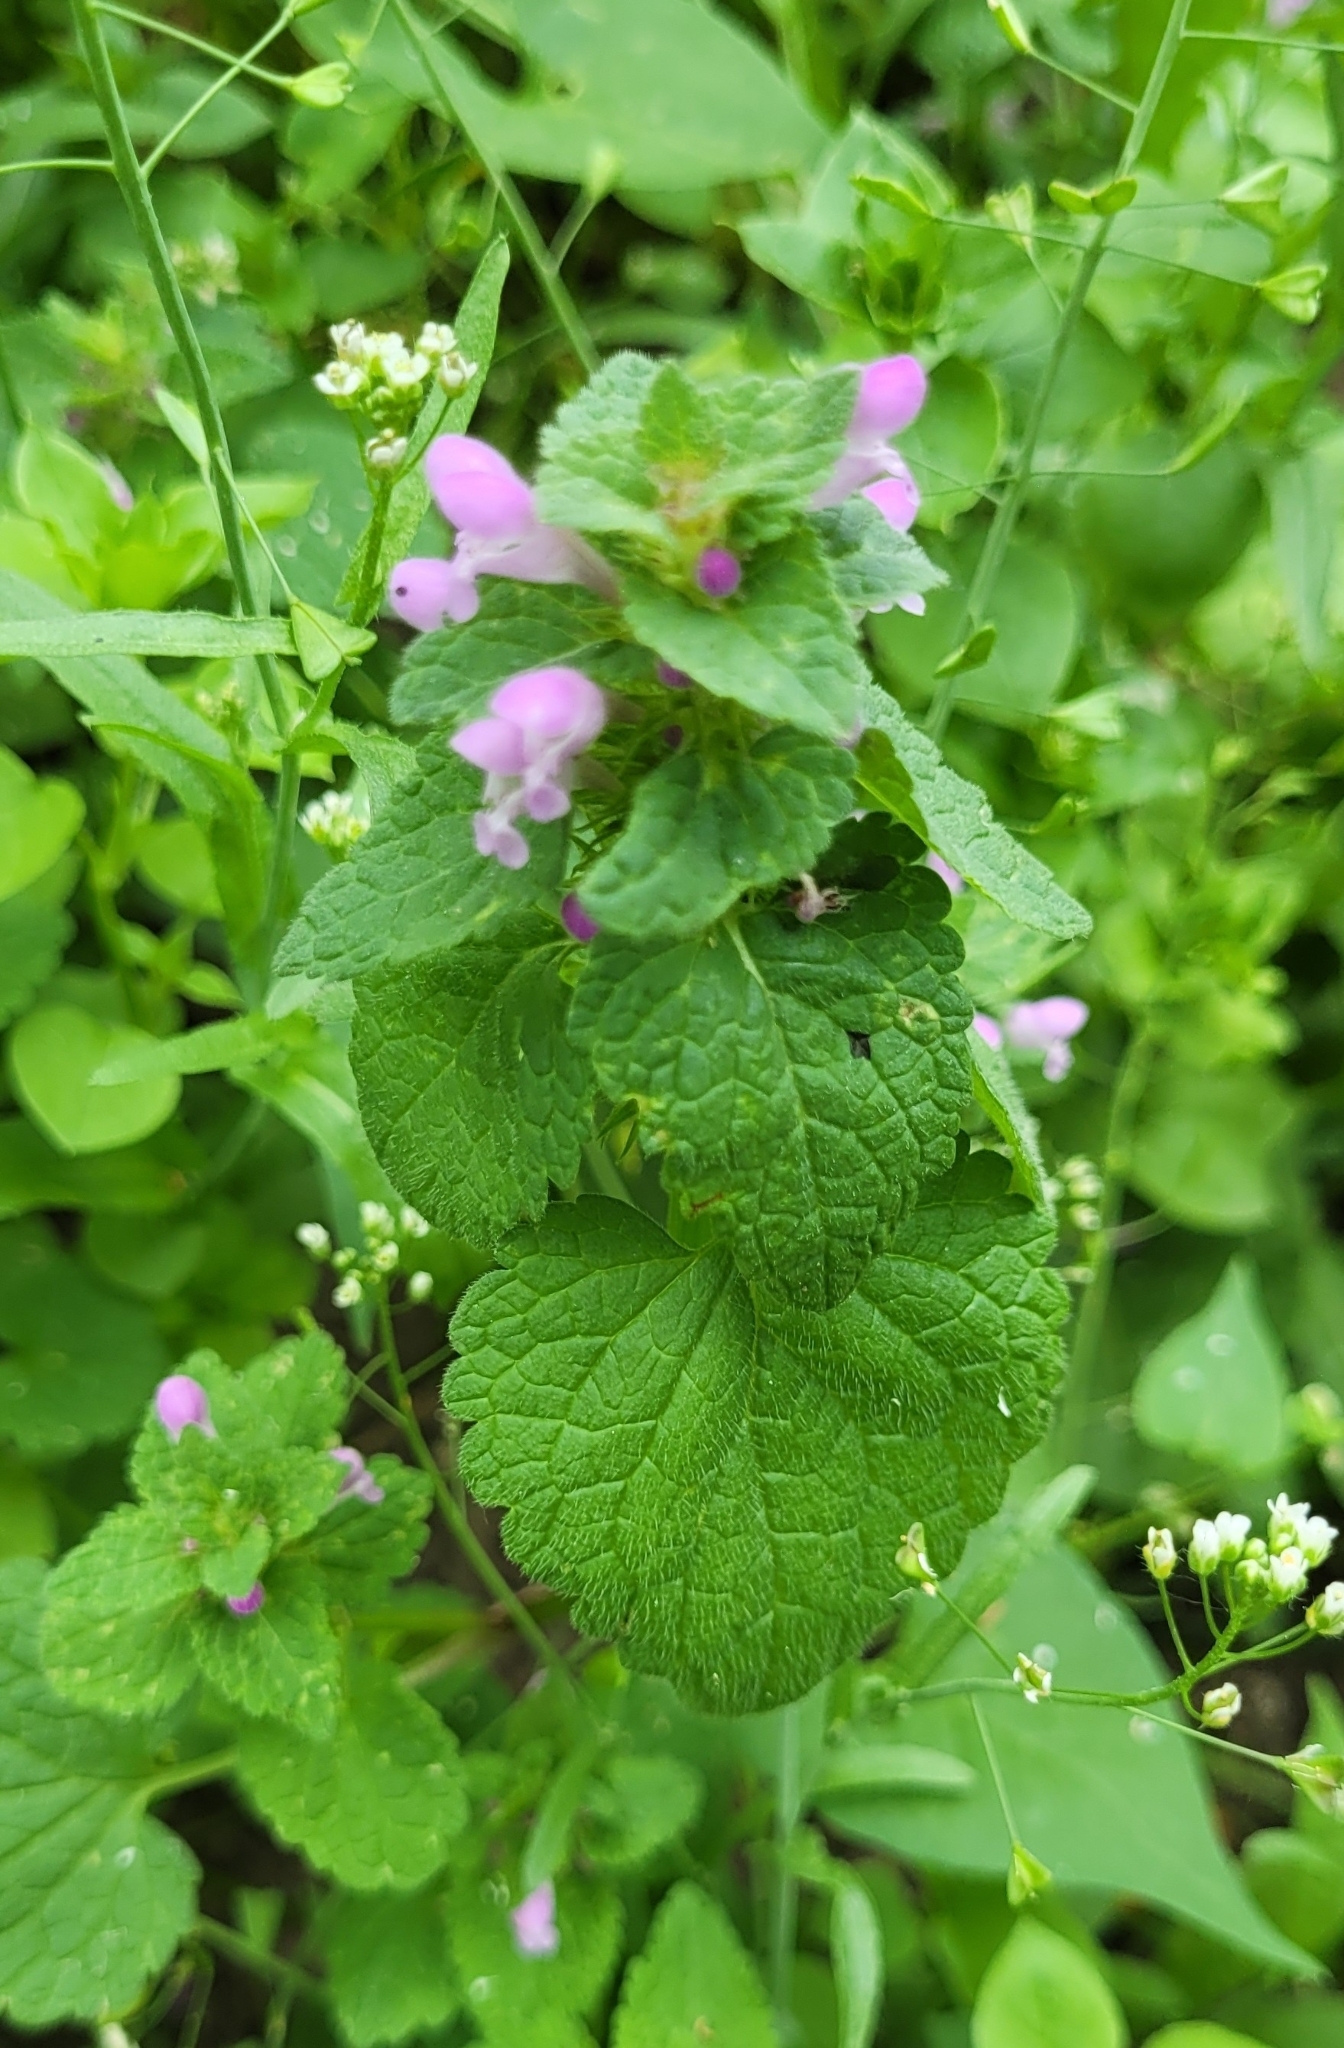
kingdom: Plantae
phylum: Tracheophyta
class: Magnoliopsida
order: Lamiales
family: Lamiaceae
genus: Lamium
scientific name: Lamium purpureum
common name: Red dead-nettle
